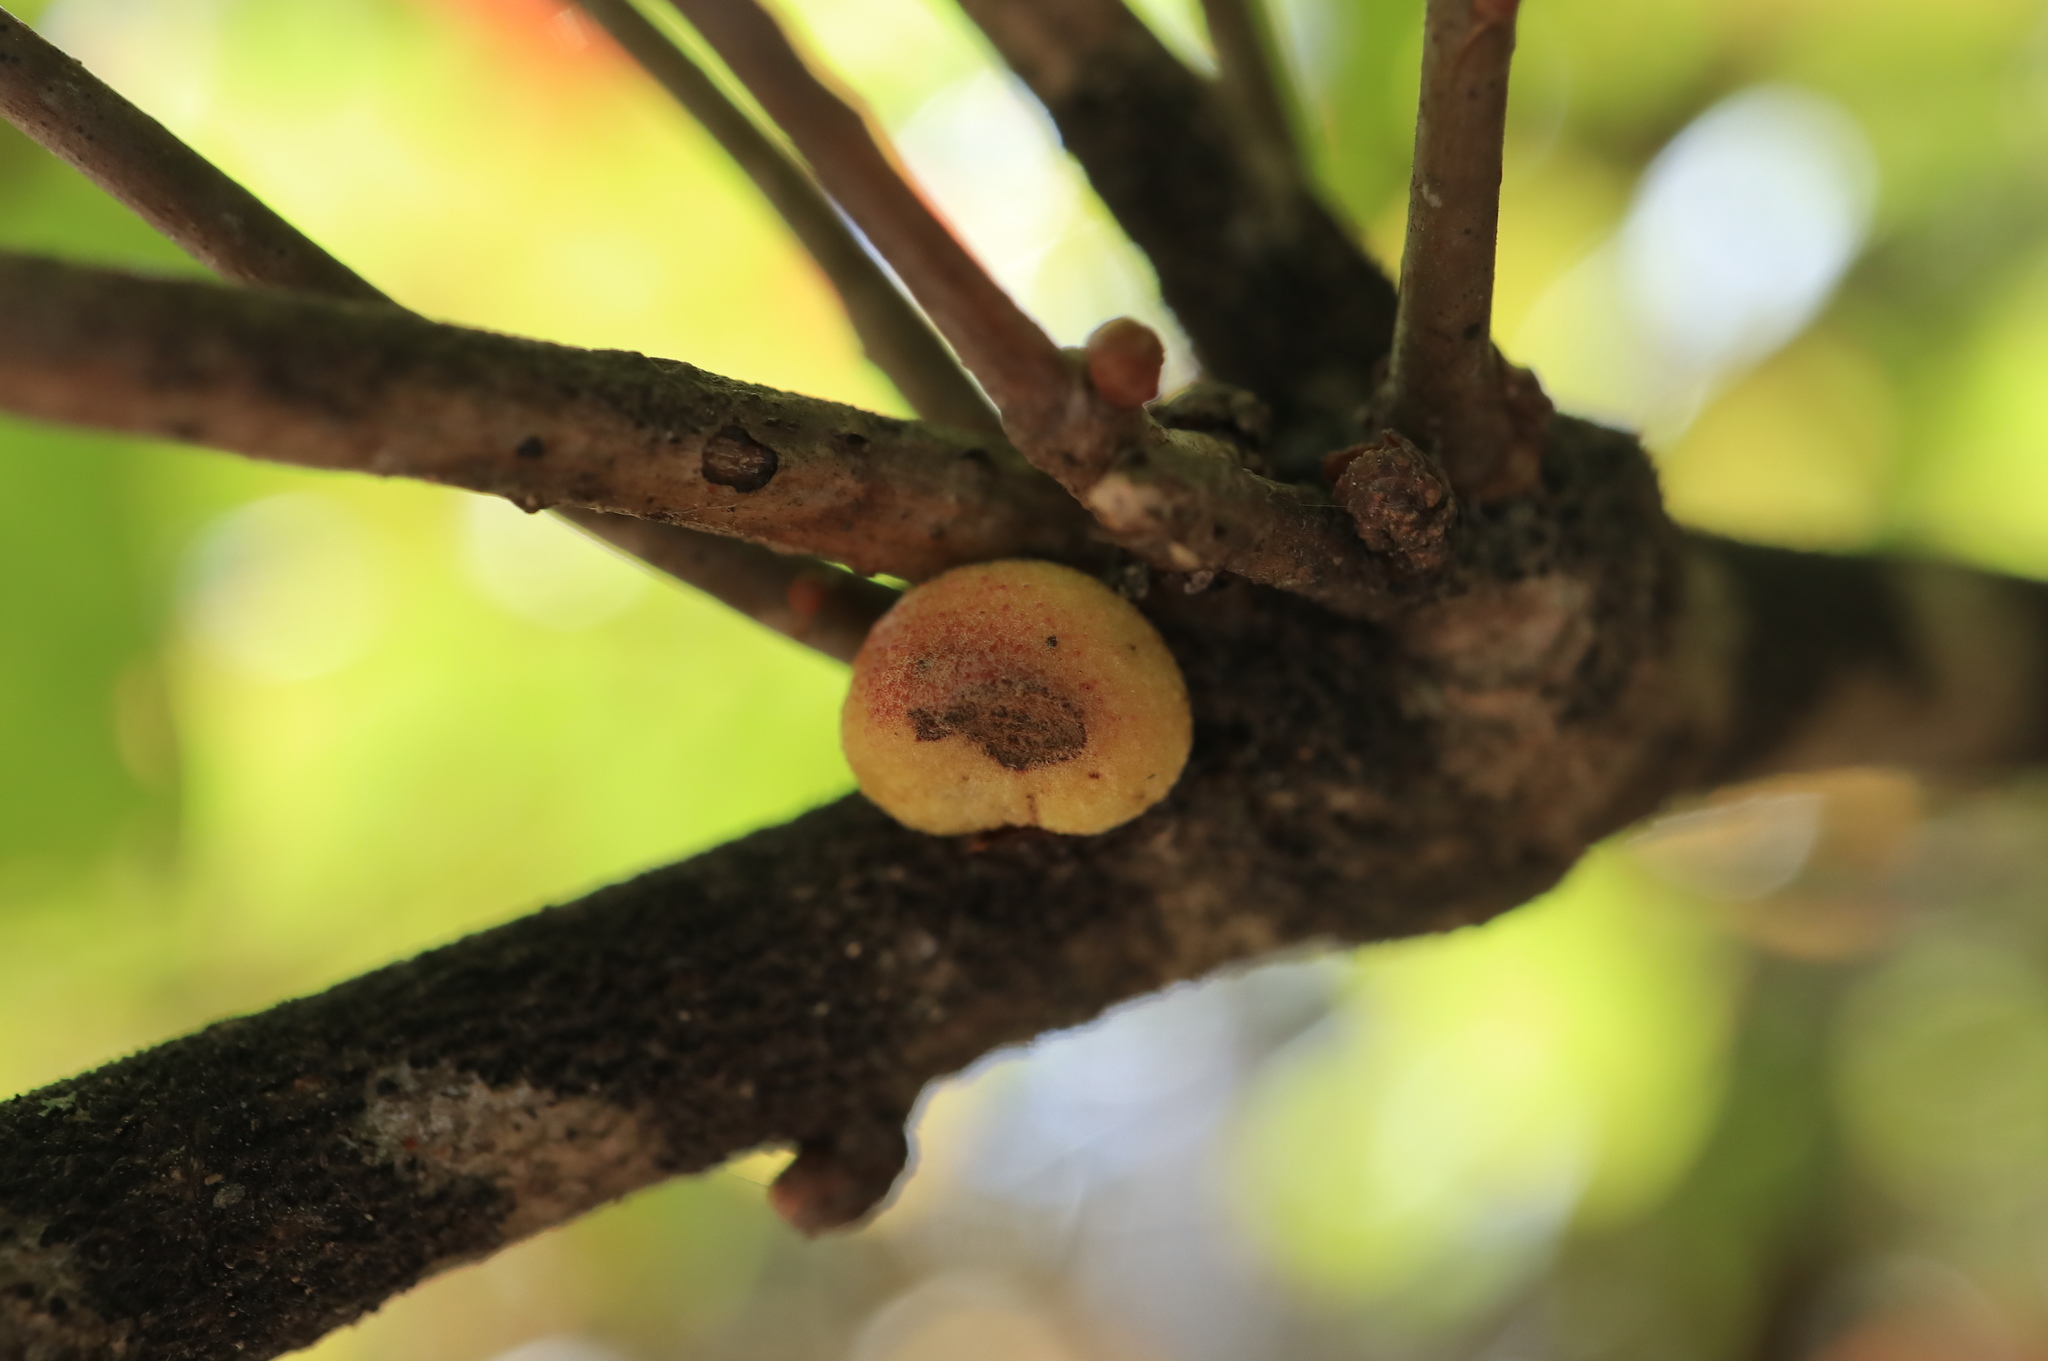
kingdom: Animalia
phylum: Arthropoda
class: Insecta
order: Hymenoptera
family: Cynipidae
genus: Disholcaspis
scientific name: Disholcaspis quercusglobulus
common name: Round bullet gall wasp
